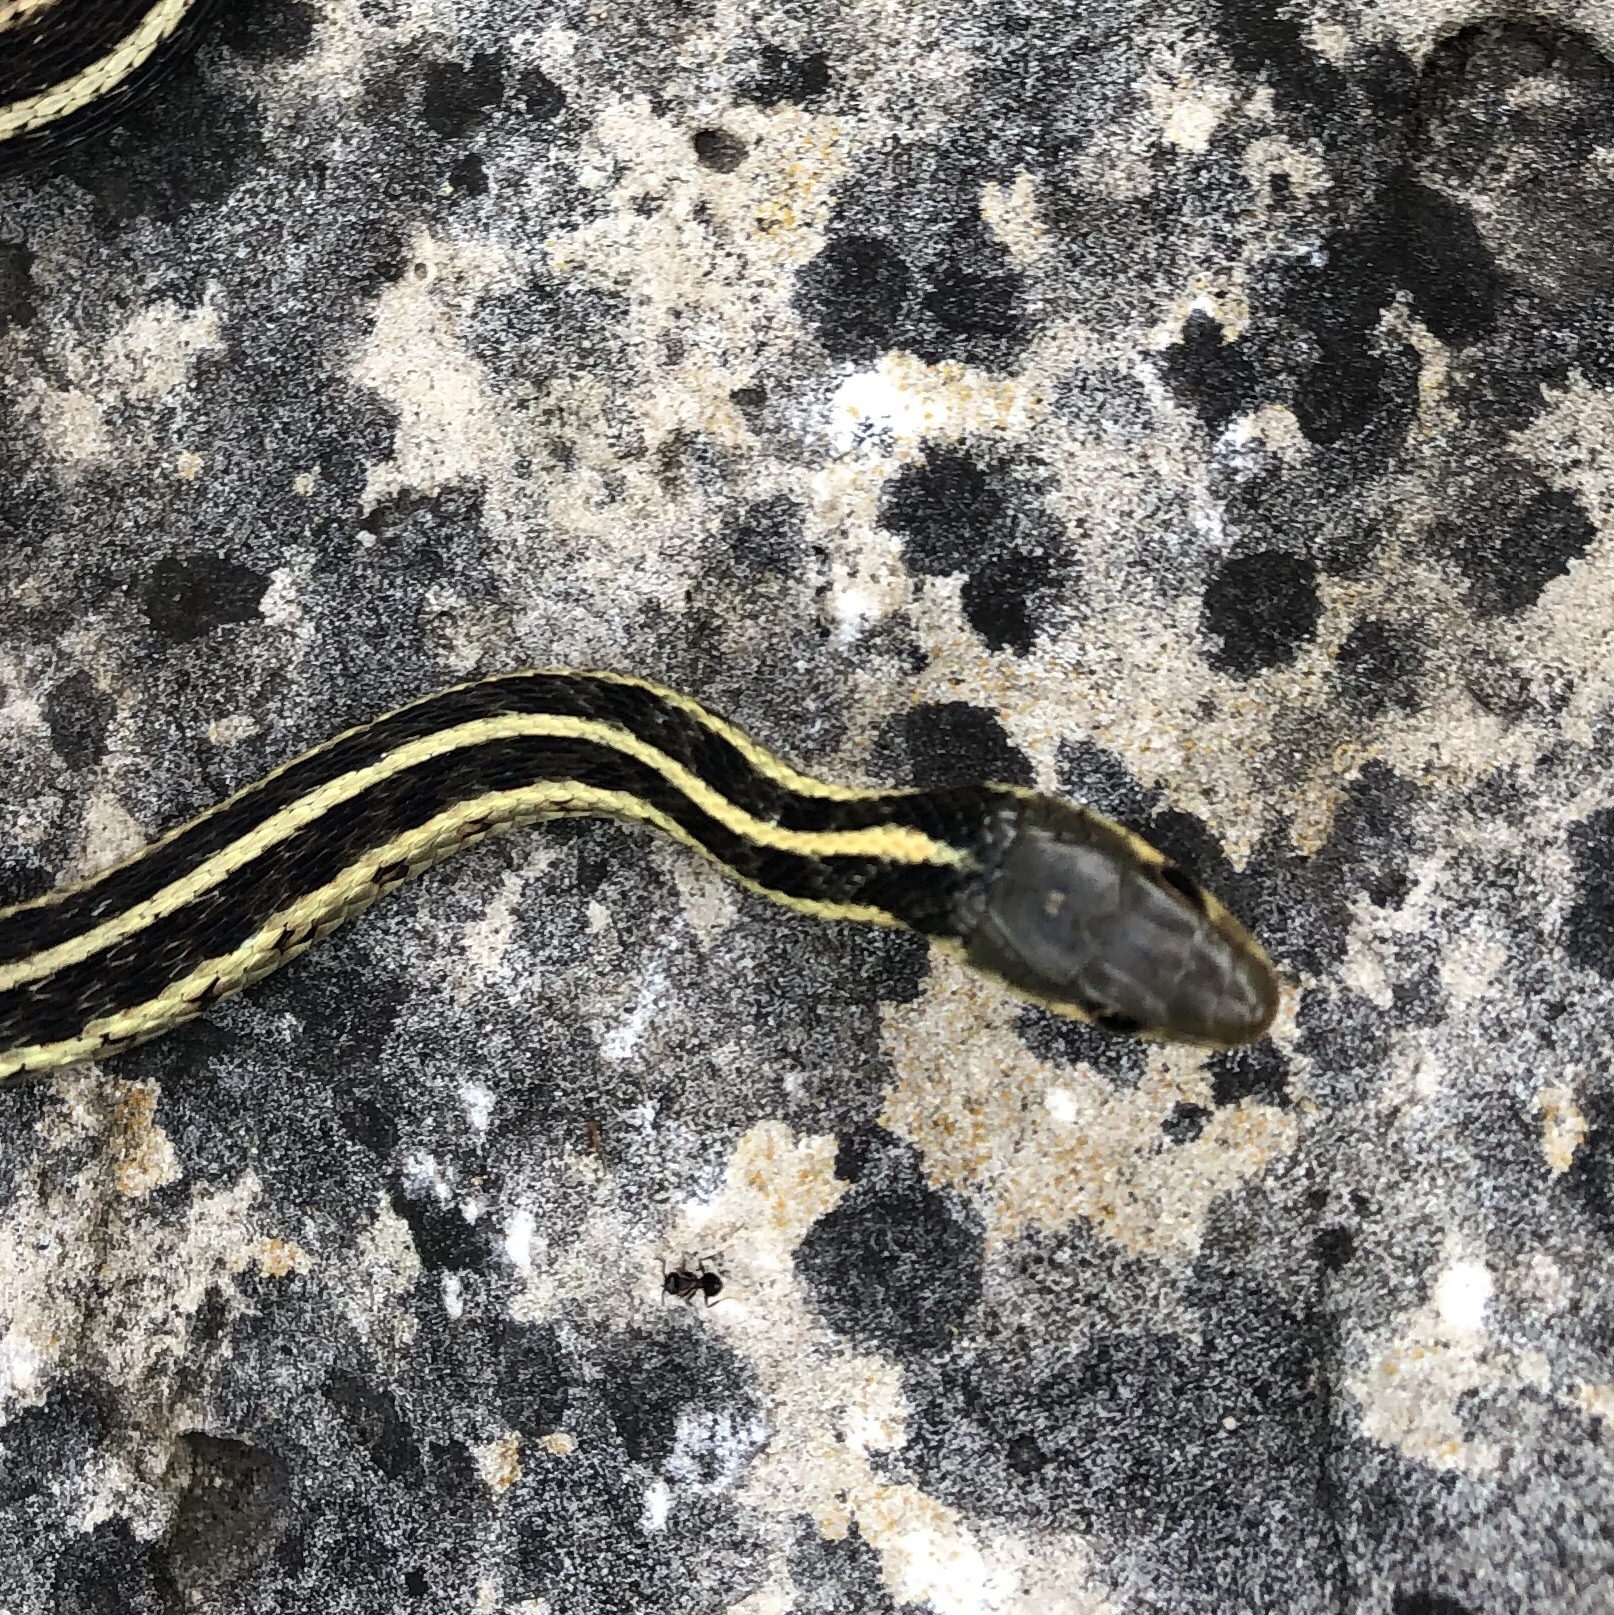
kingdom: Animalia
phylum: Chordata
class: Squamata
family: Colubridae
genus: Thamnophis
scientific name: Thamnophis sirtalis
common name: Common garter snake
